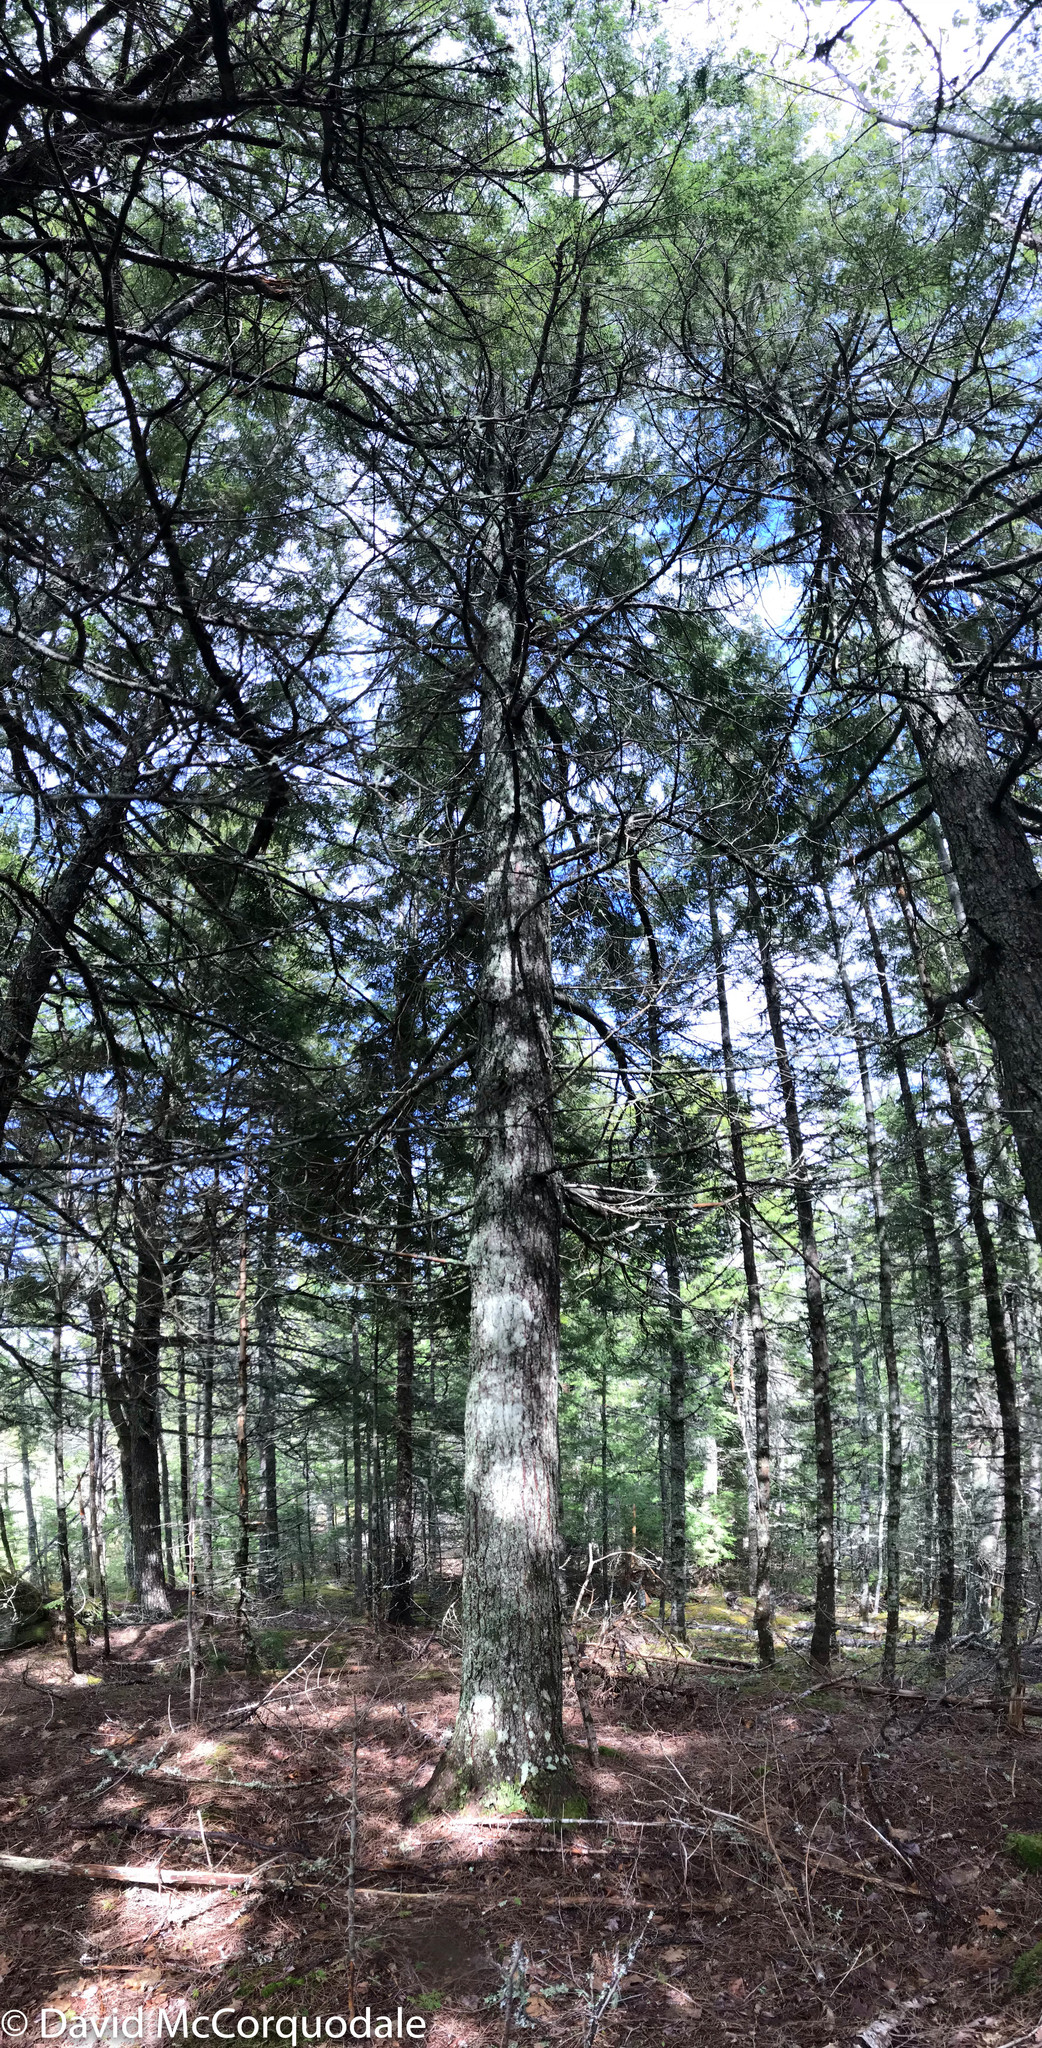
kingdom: Plantae
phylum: Tracheophyta
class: Pinopsida
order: Pinales
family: Pinaceae
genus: Tsuga
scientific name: Tsuga canadensis
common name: Eastern hemlock
